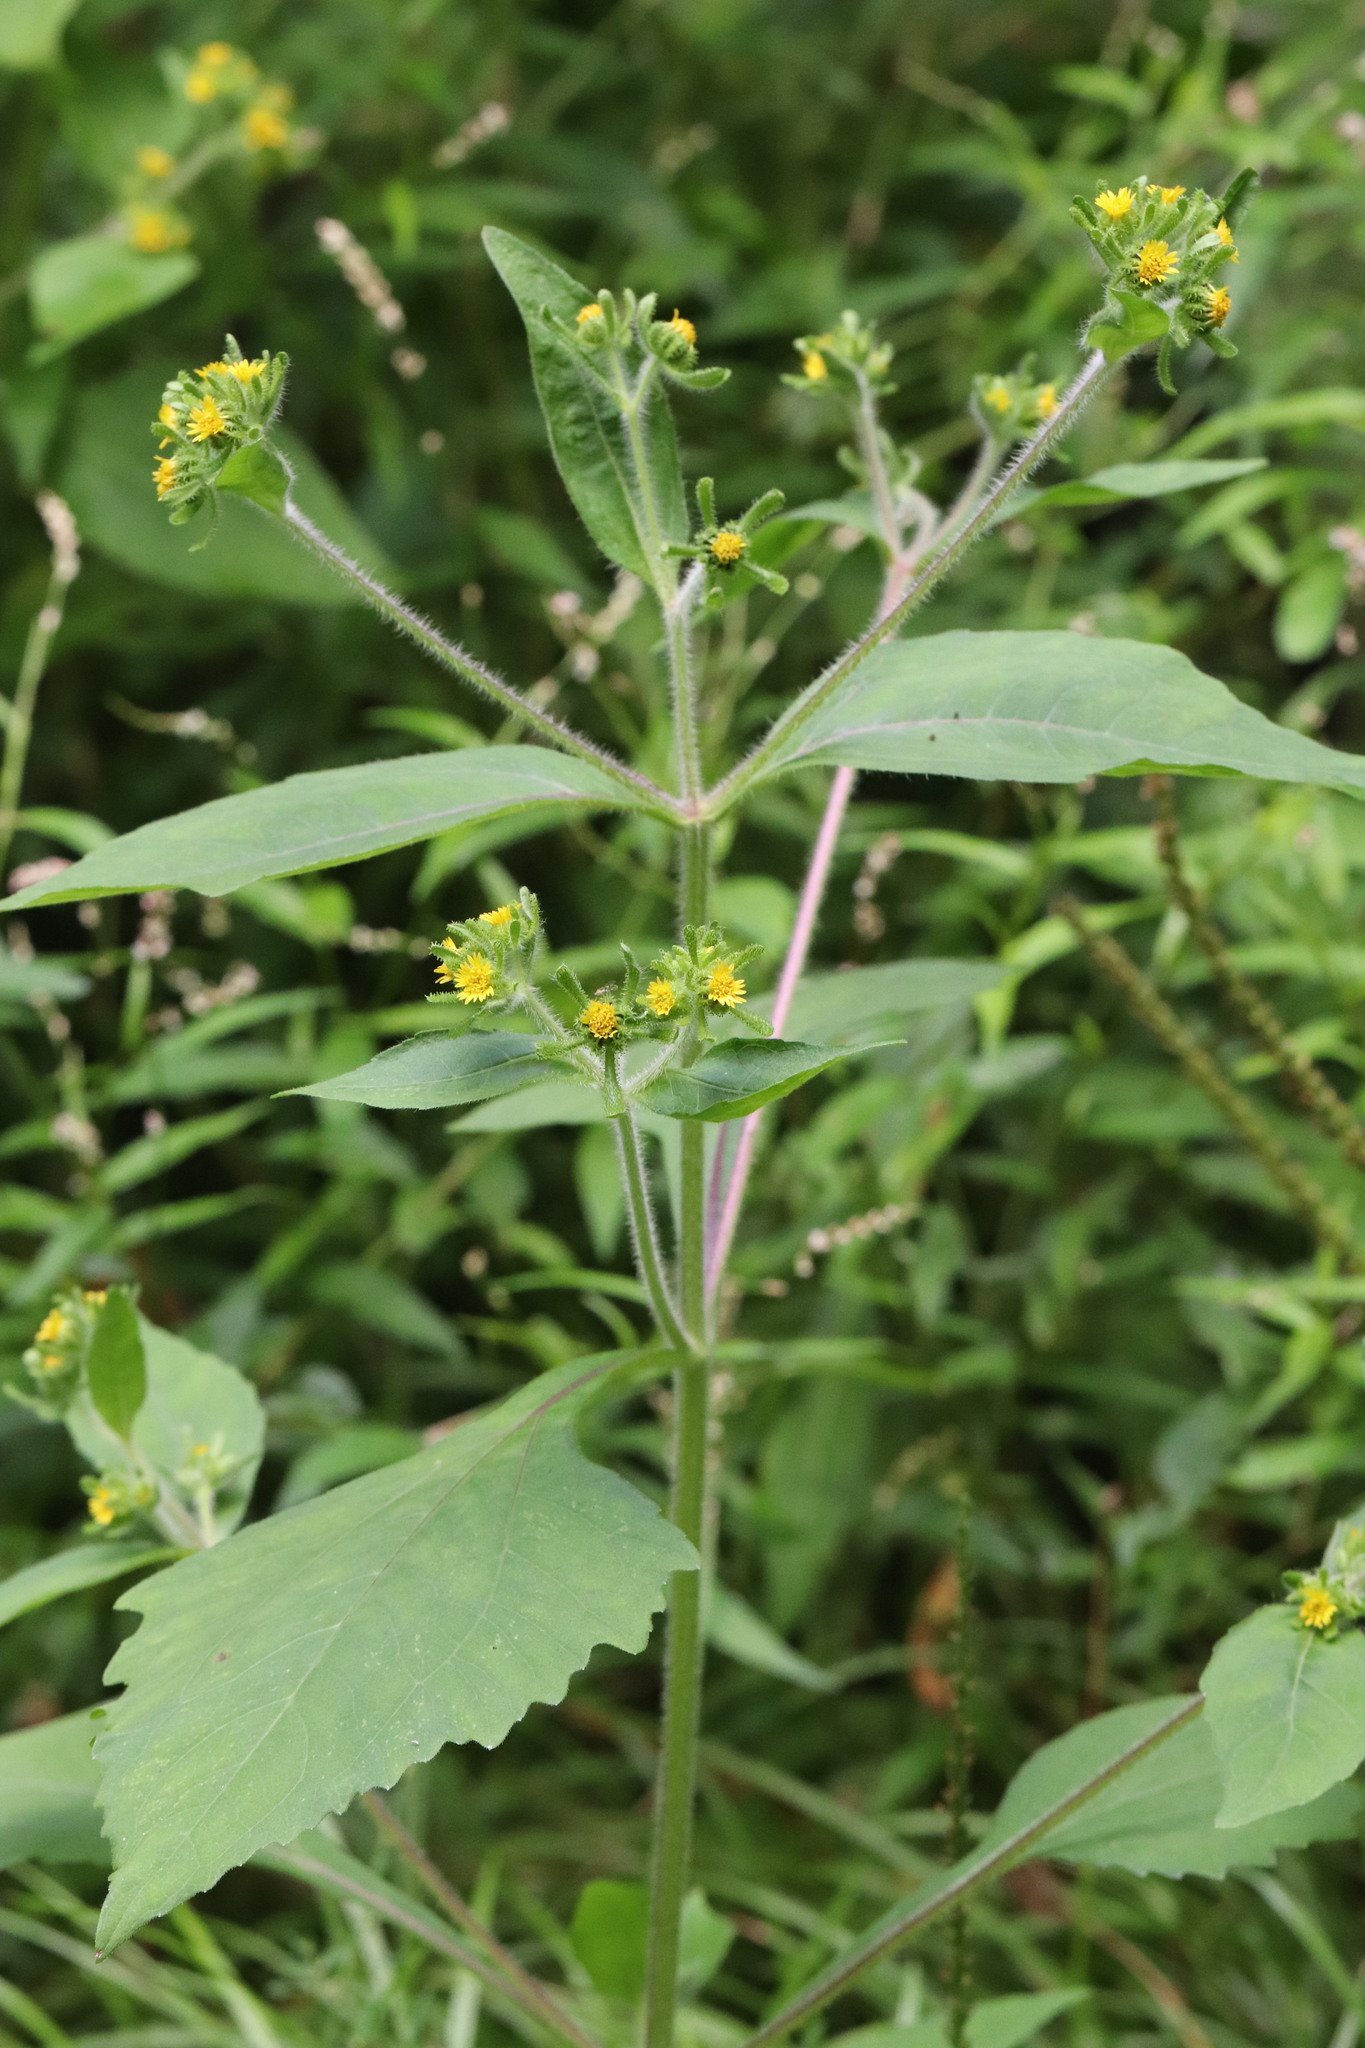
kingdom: Plantae
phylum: Tracheophyta
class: Magnoliopsida
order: Asterales
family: Asteraceae
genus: Sigesbeckia
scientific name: Sigesbeckia pubescens
